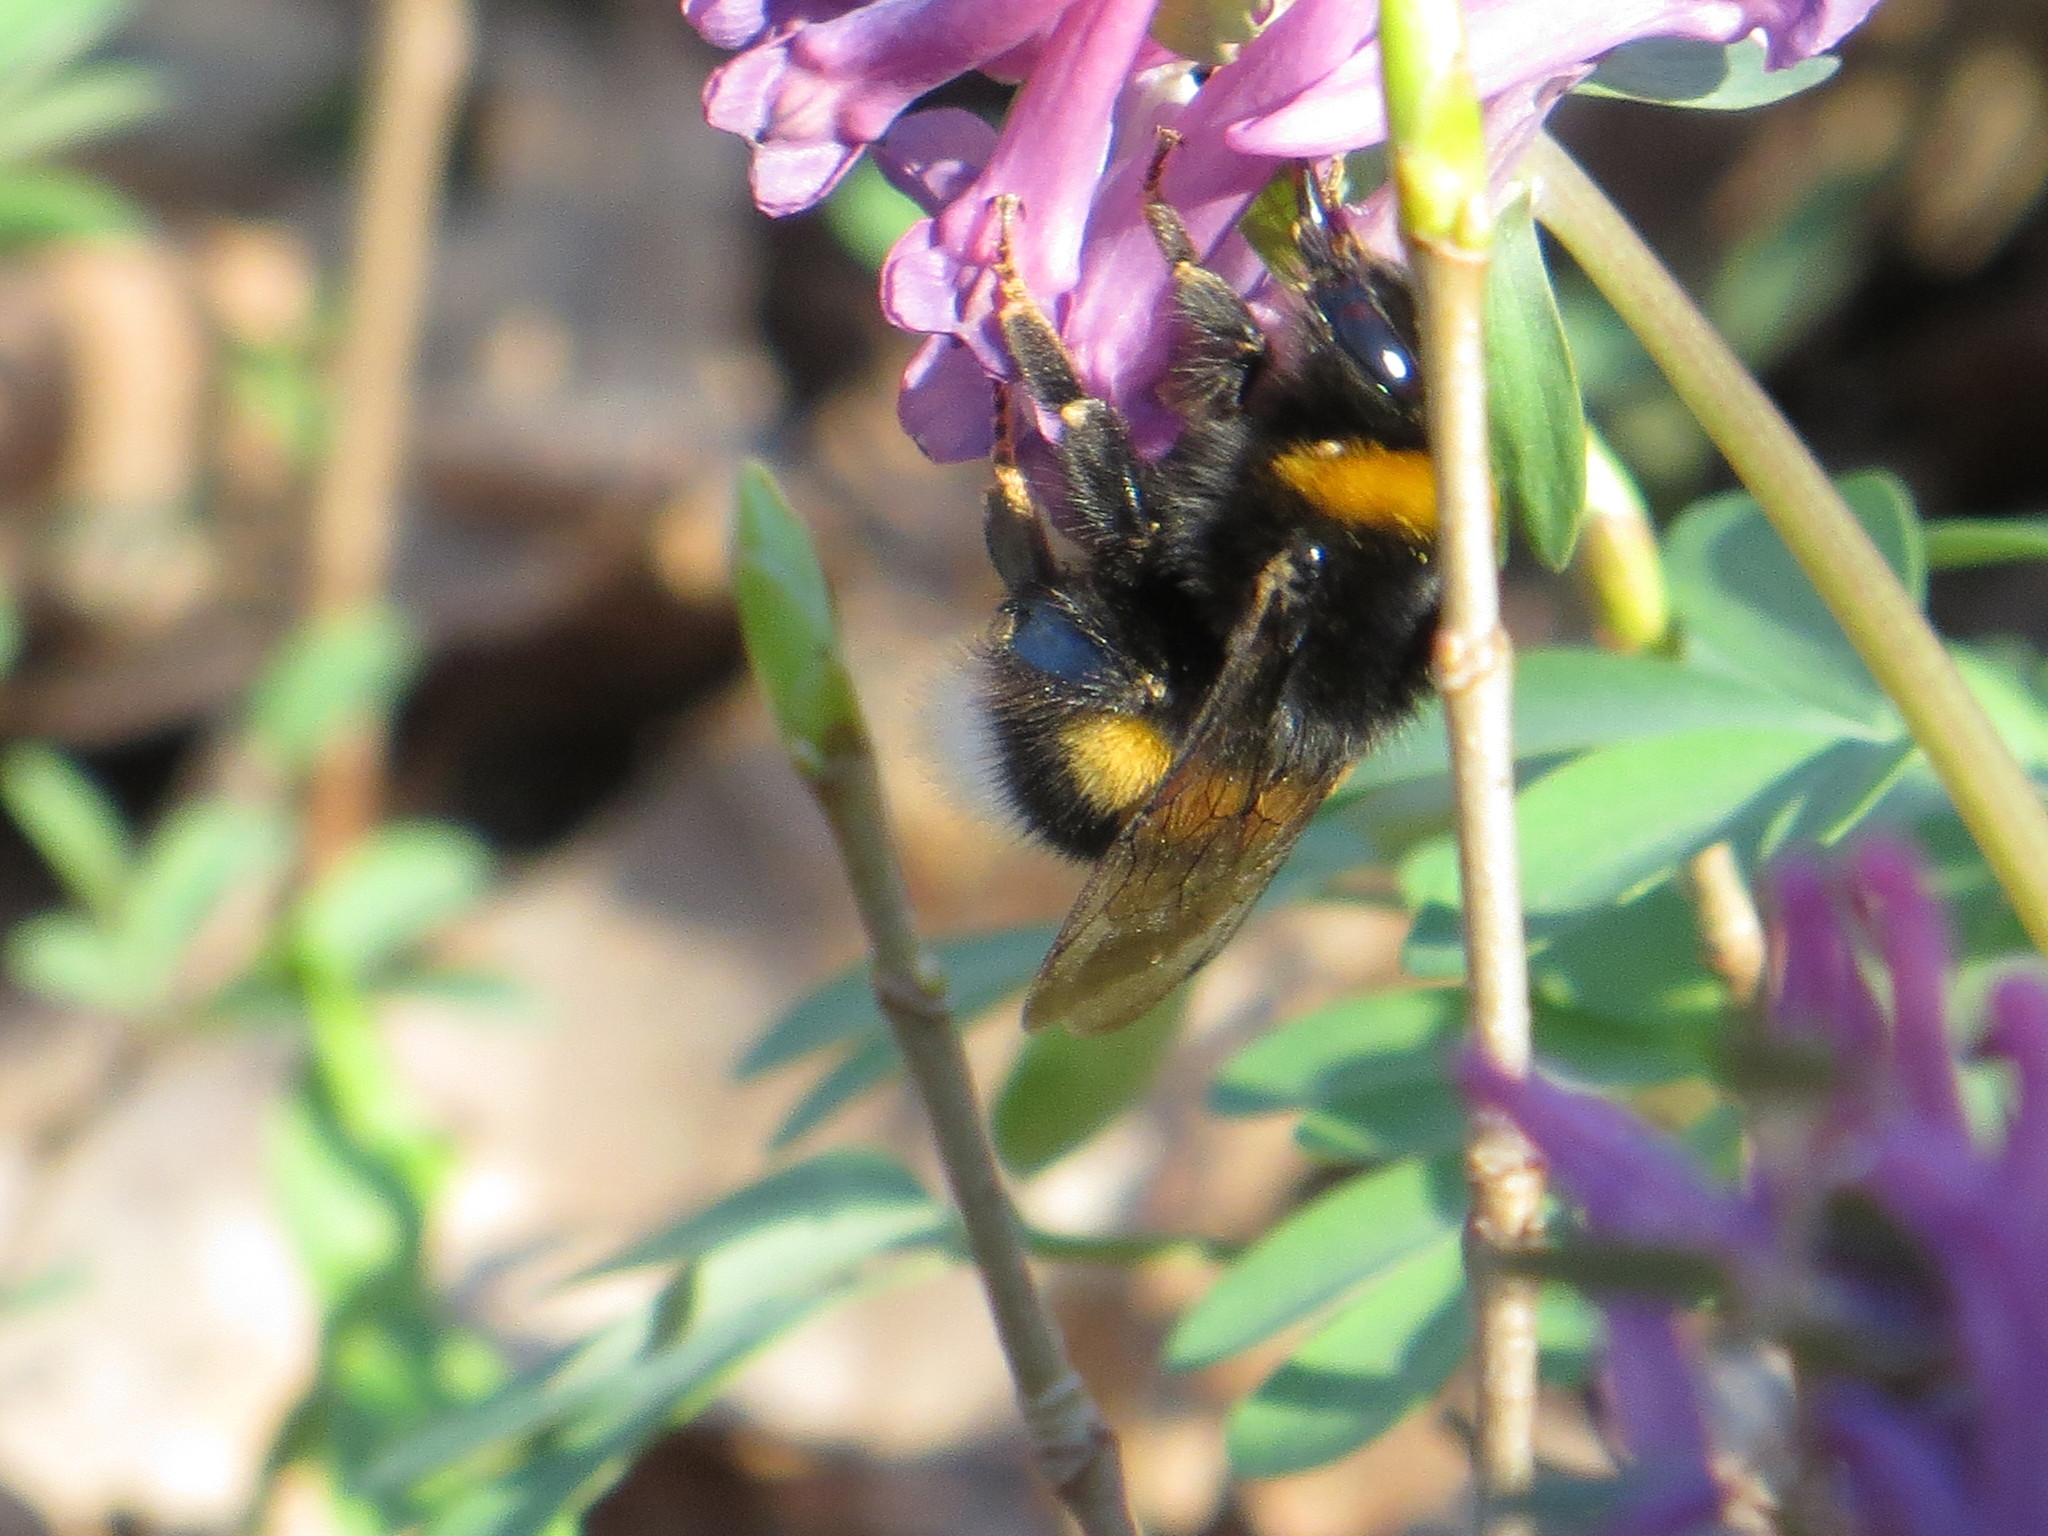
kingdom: Animalia
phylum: Arthropoda
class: Insecta
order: Hymenoptera
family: Apidae
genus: Bombus
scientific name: Bombus
